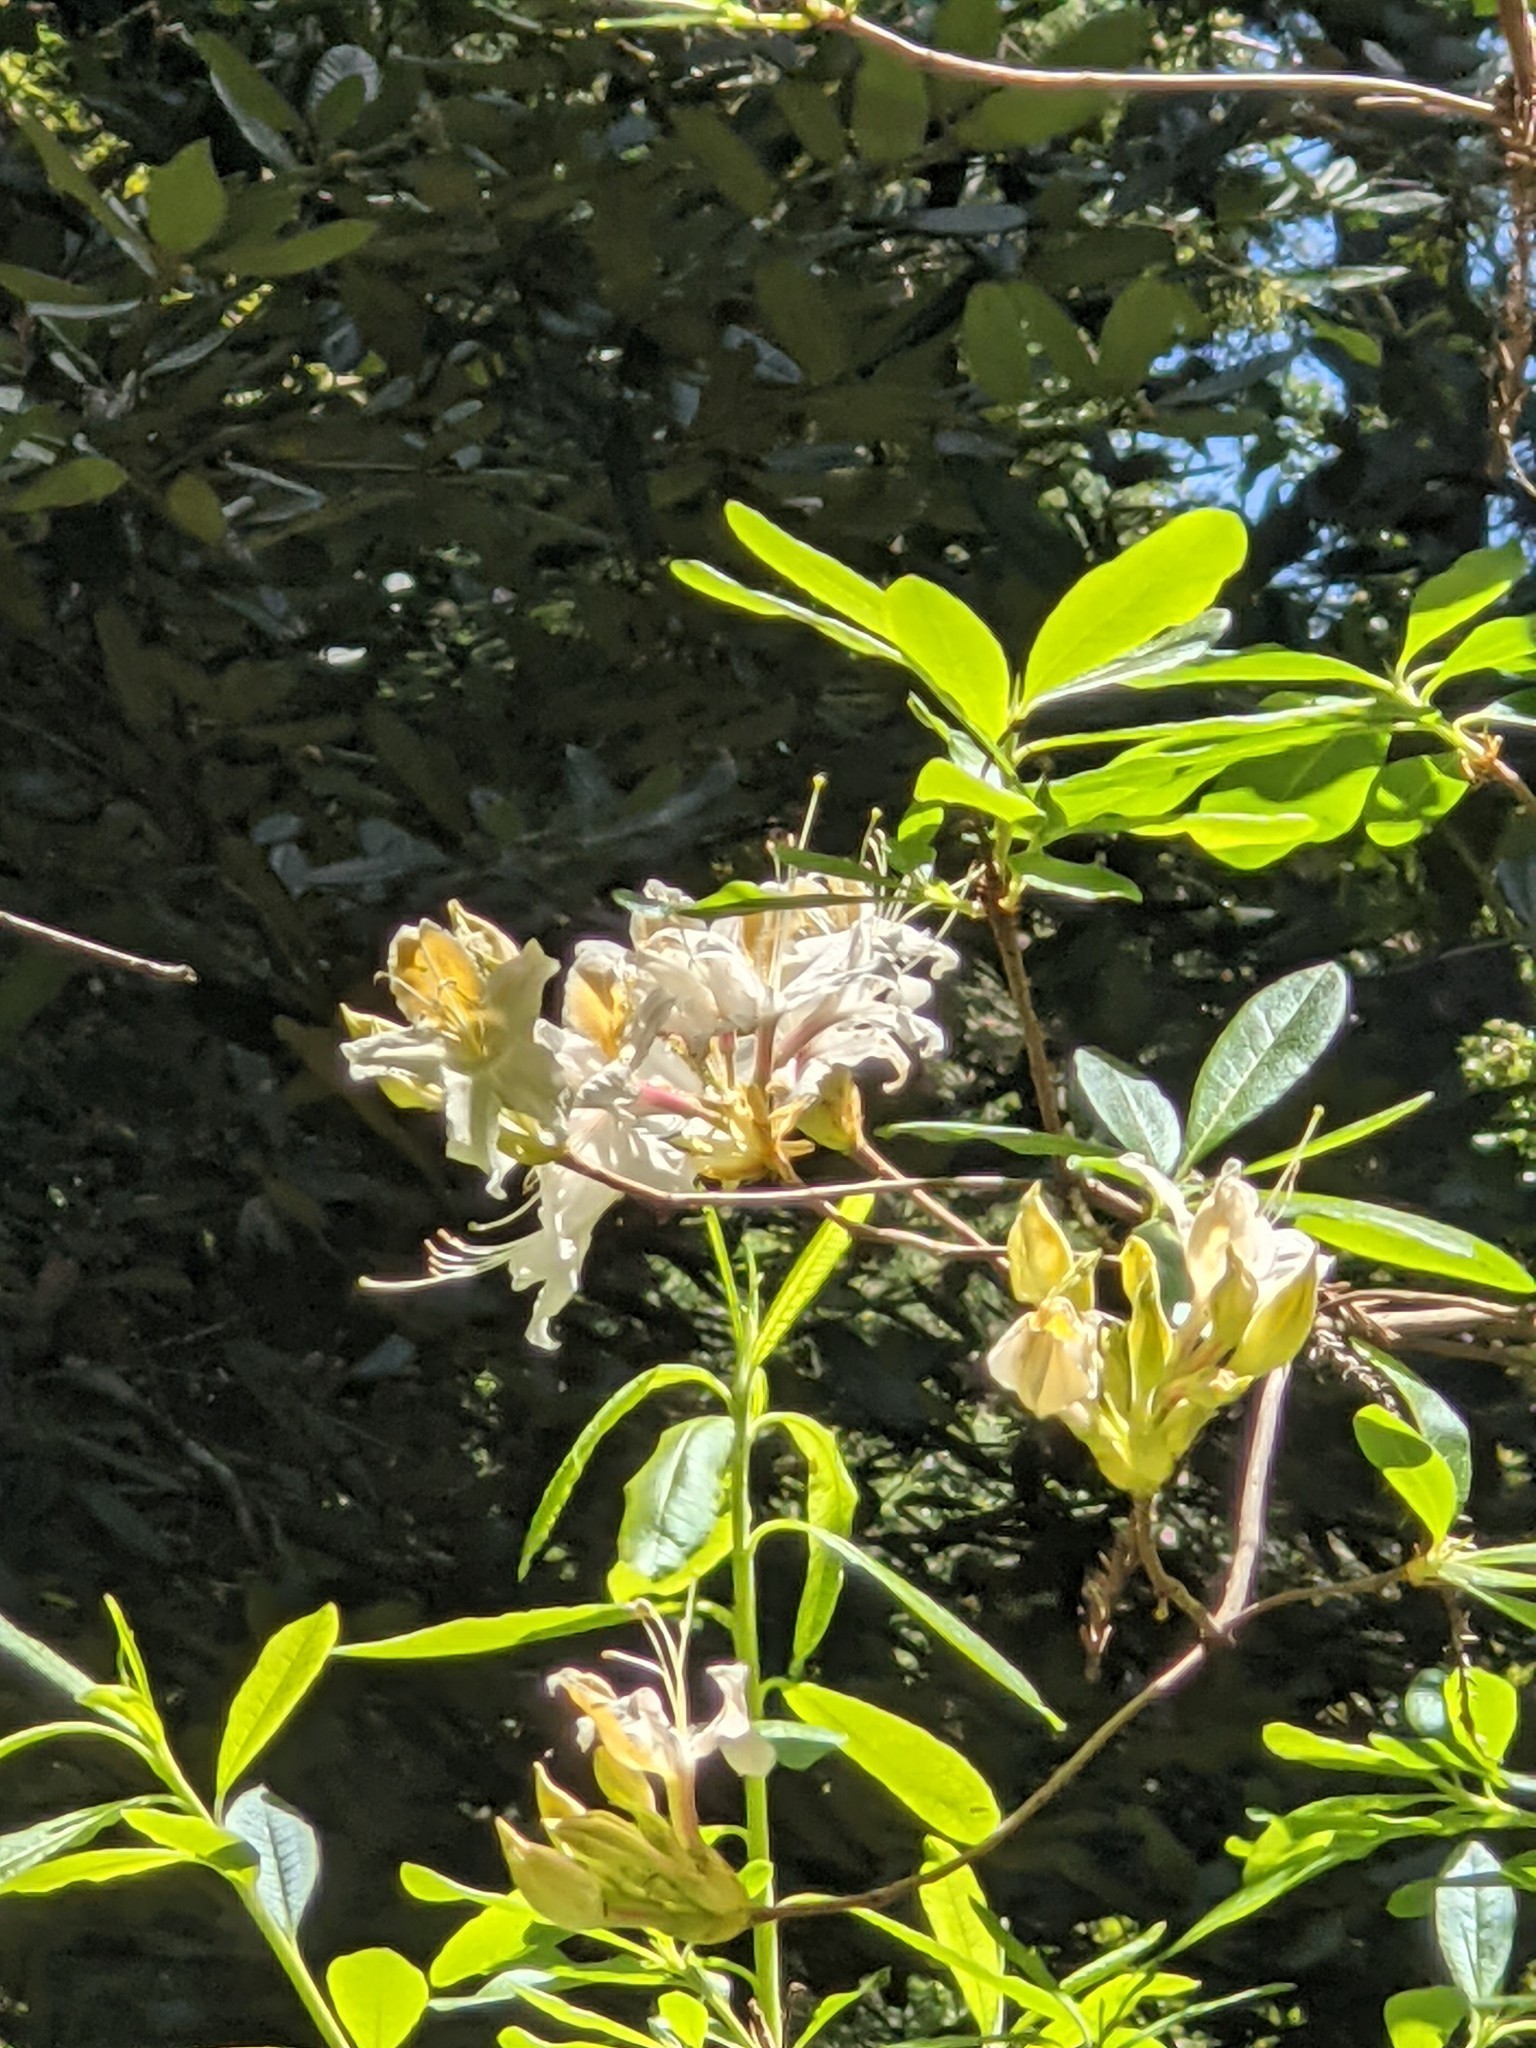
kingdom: Plantae
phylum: Tracheophyta
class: Magnoliopsida
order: Ericales
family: Ericaceae
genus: Rhododendron
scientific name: Rhododendron occidentale
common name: Western azalea
